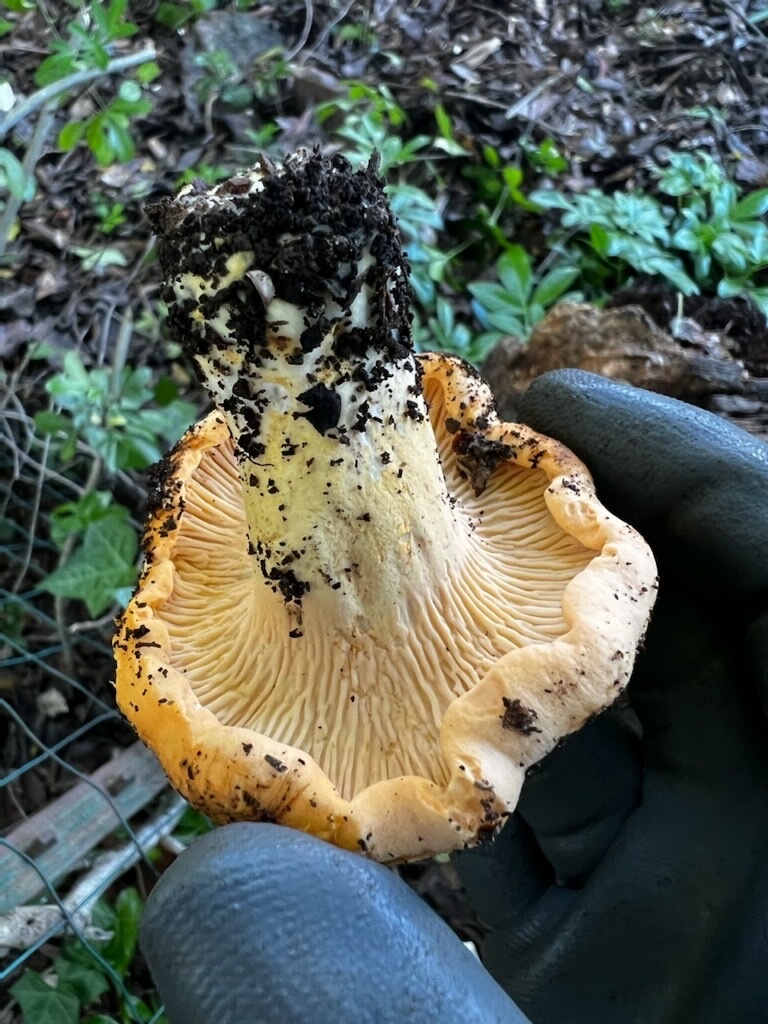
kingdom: Fungi
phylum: Basidiomycota
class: Agaricomycetes
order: Cantharellales
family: Hydnaceae
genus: Cantharellus
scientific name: Cantharellus californicus
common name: California golden chanterelle
